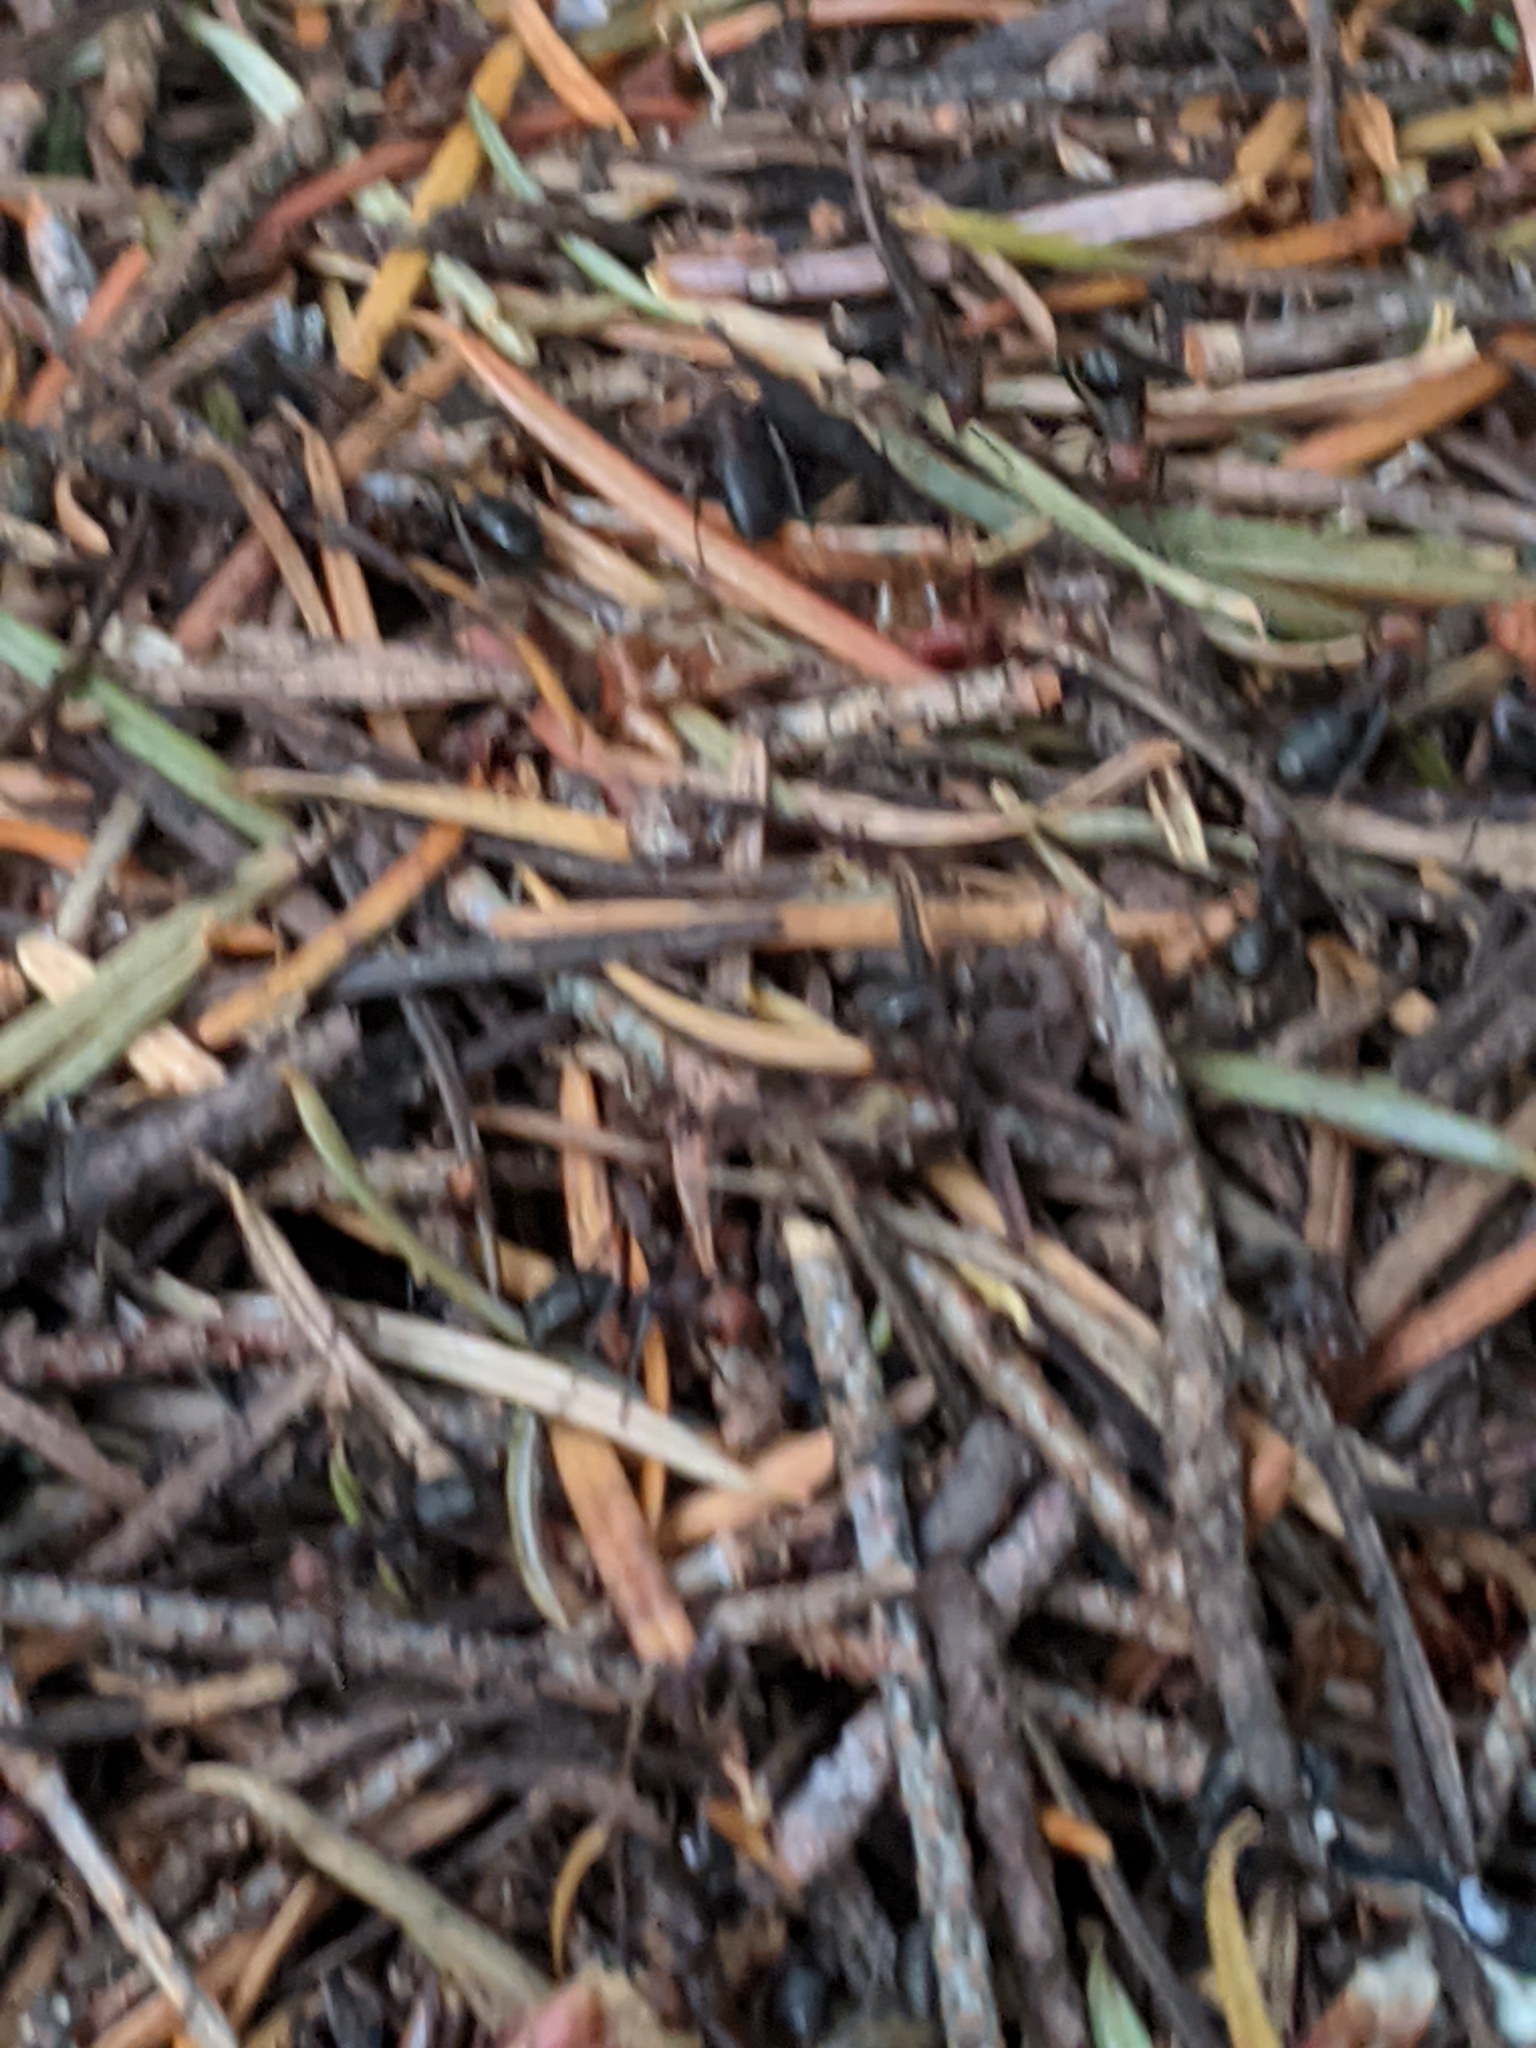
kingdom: Animalia
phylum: Arthropoda
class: Insecta
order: Hymenoptera
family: Formicidae
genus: Formica
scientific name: Formica obscuripes
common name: Western thatching ant
